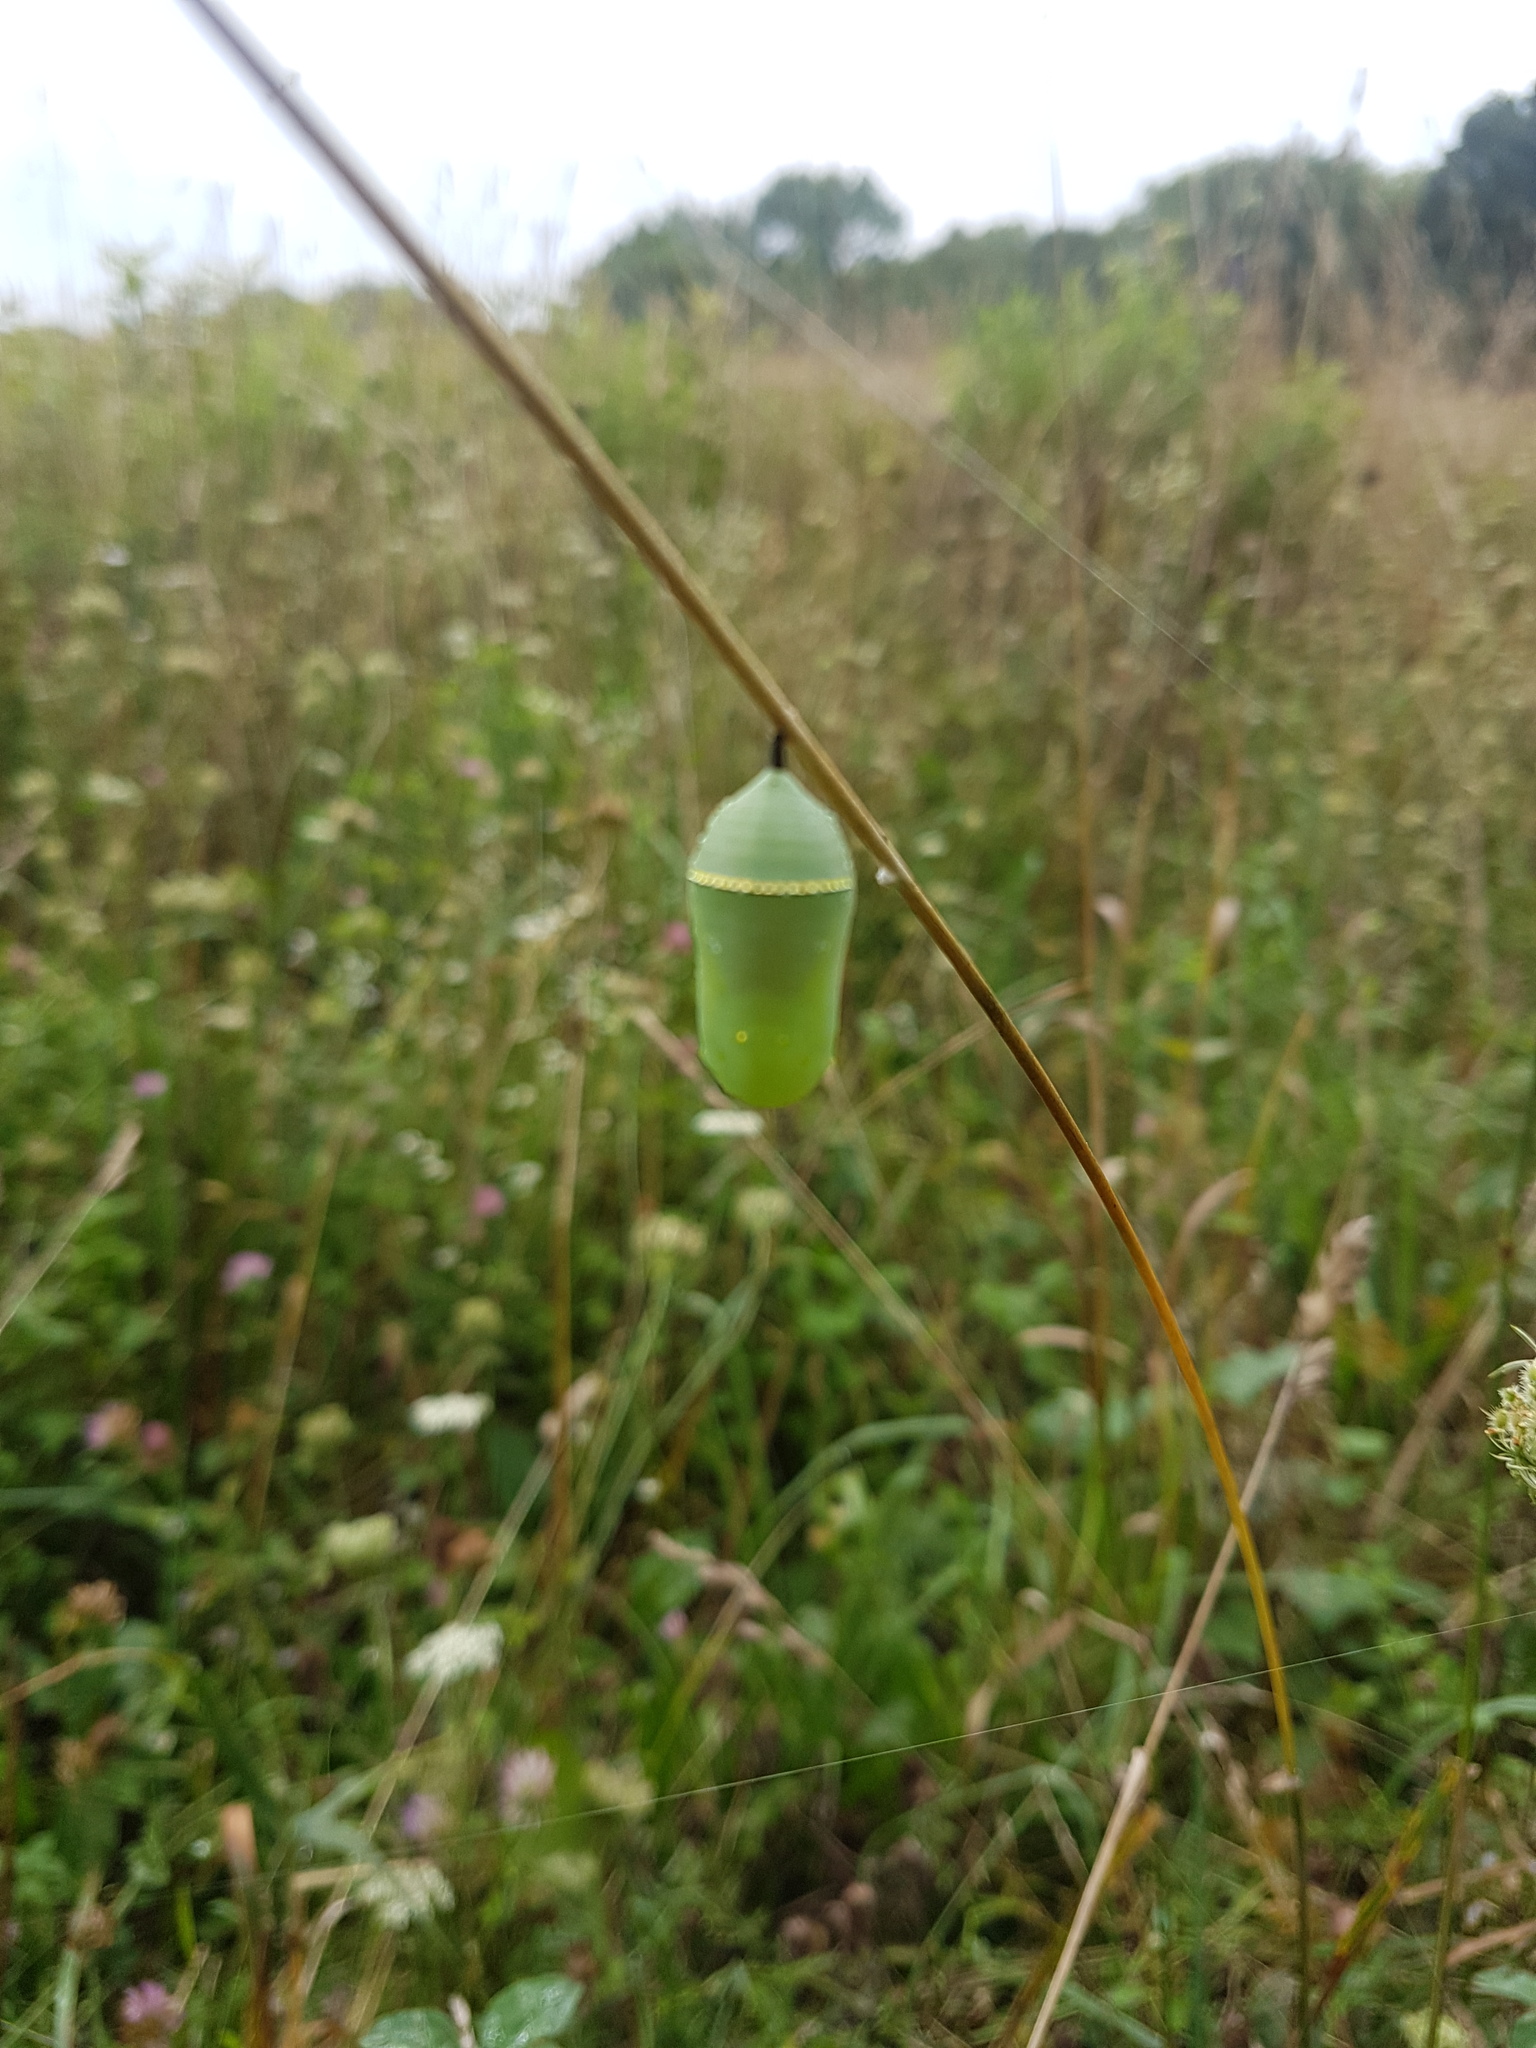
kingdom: Animalia
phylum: Arthropoda
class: Insecta
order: Lepidoptera
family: Nymphalidae
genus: Danaus
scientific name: Danaus plexippus
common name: Monarch
